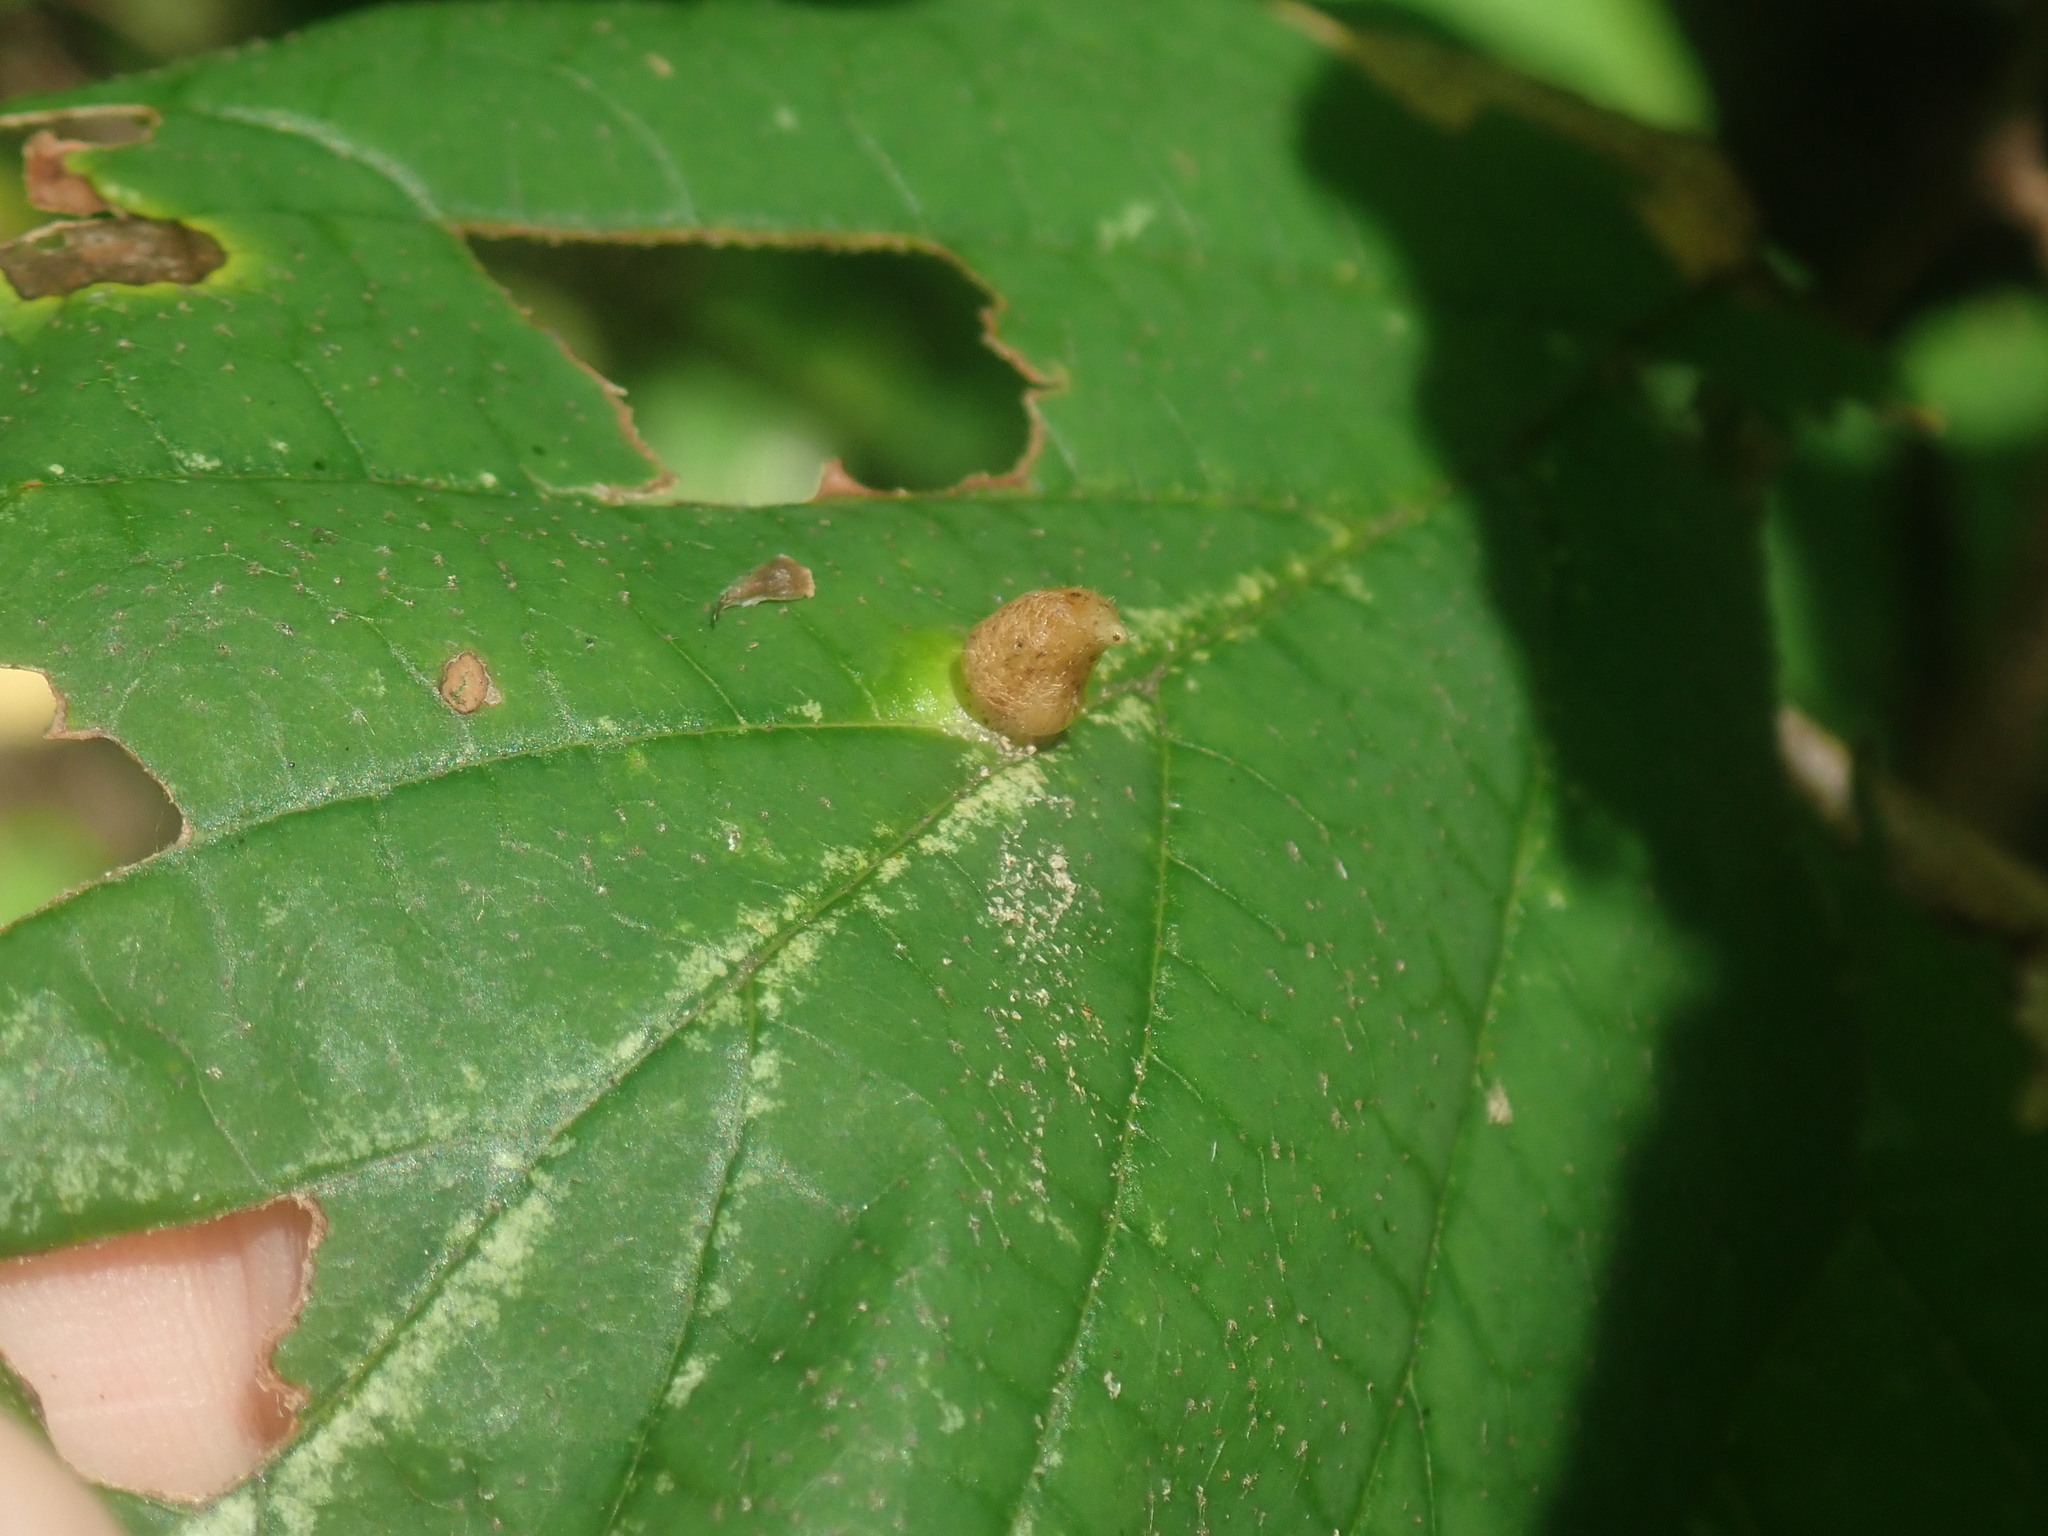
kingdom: Animalia
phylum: Arthropoda
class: Insecta
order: Hemiptera
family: Aphididae
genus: Hormaphis
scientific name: Hormaphis hamamelidis
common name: Witch-hazel cone gall aphid
